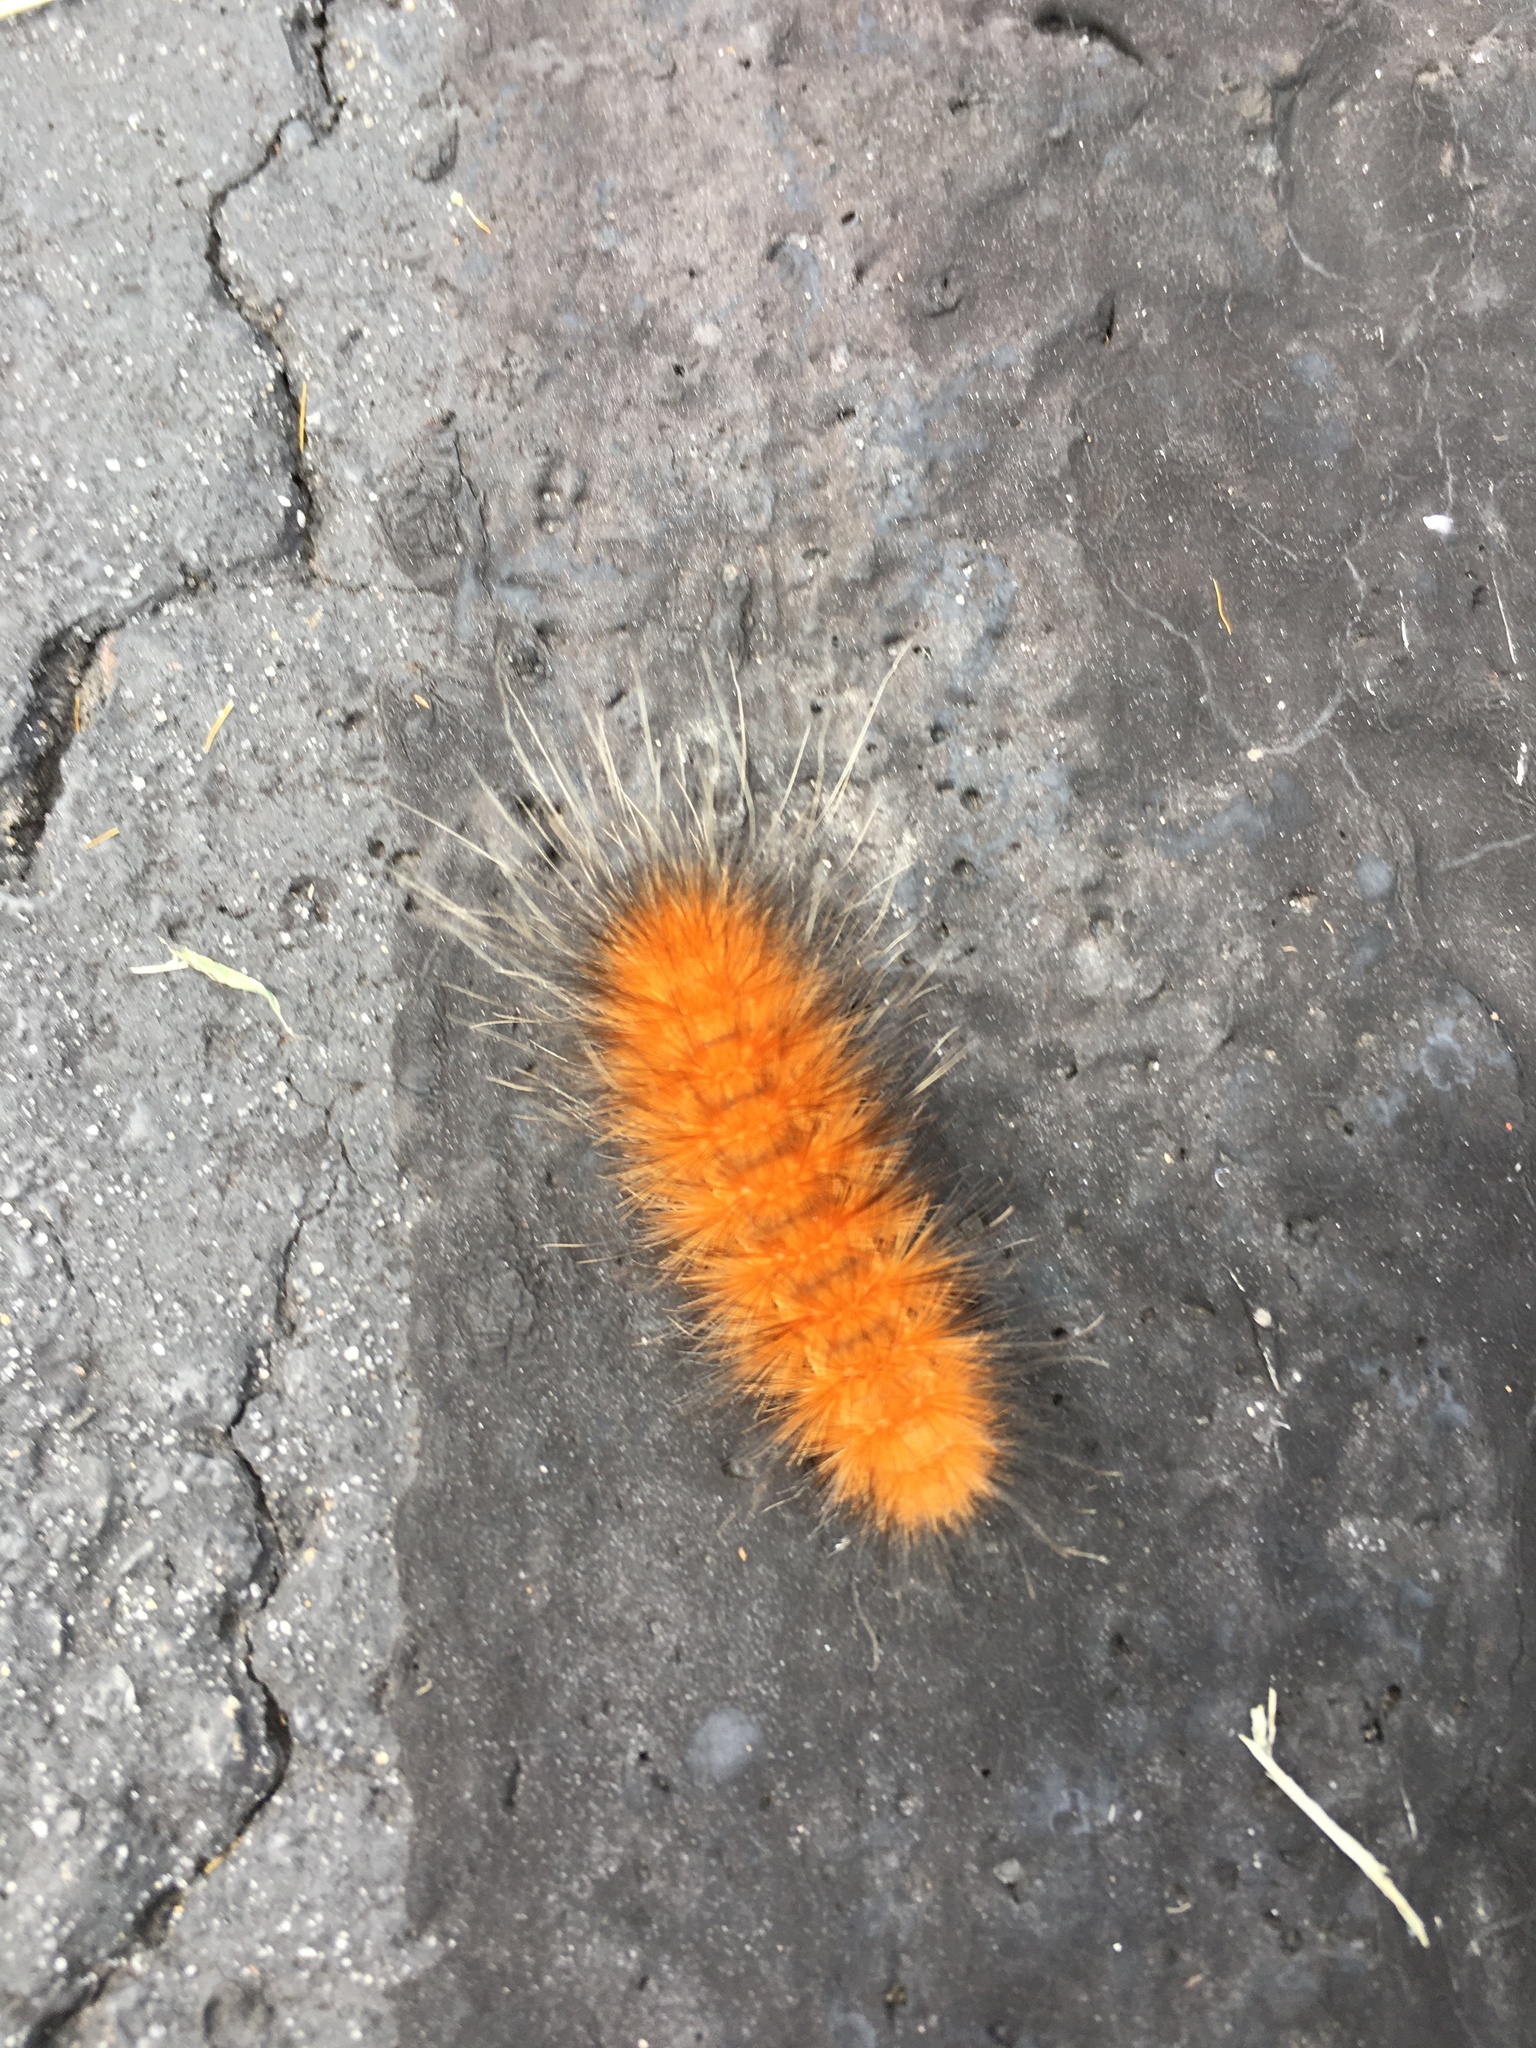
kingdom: Animalia
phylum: Arthropoda
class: Insecta
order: Lepidoptera
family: Erebidae
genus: Spilosoma
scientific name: Spilosoma virginica
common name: Virginia tiger moth
